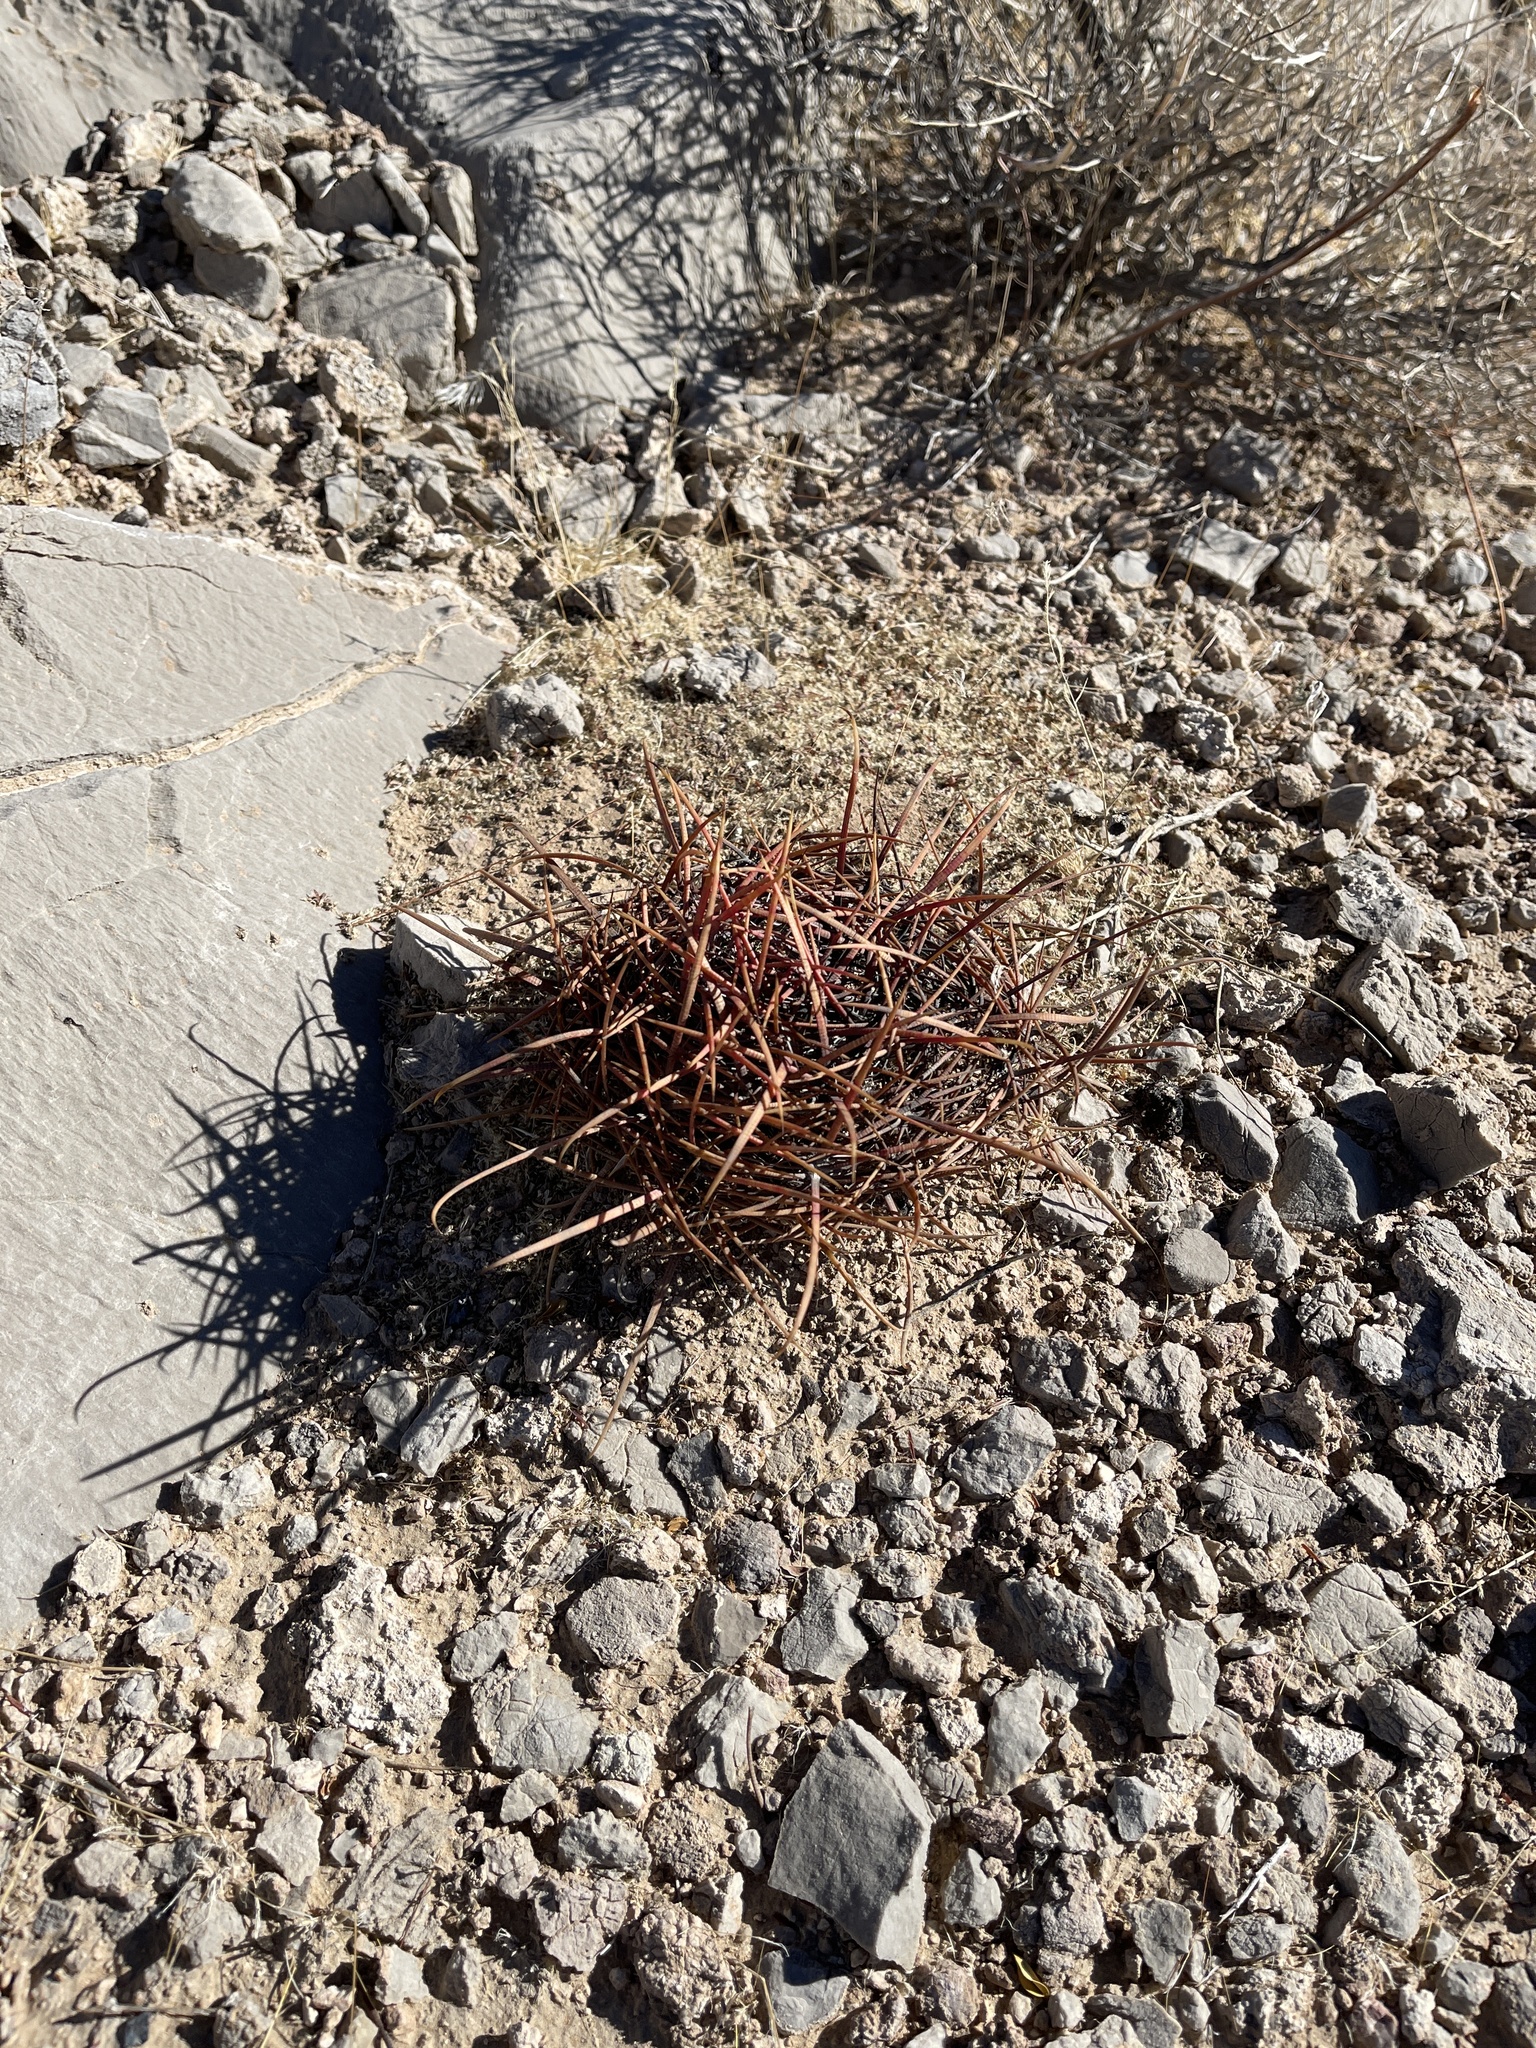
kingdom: Plantae
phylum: Tracheophyta
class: Magnoliopsida
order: Caryophyllales
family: Cactaceae
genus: Ferocactus
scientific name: Ferocactus cylindraceus
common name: California barrel cactus
